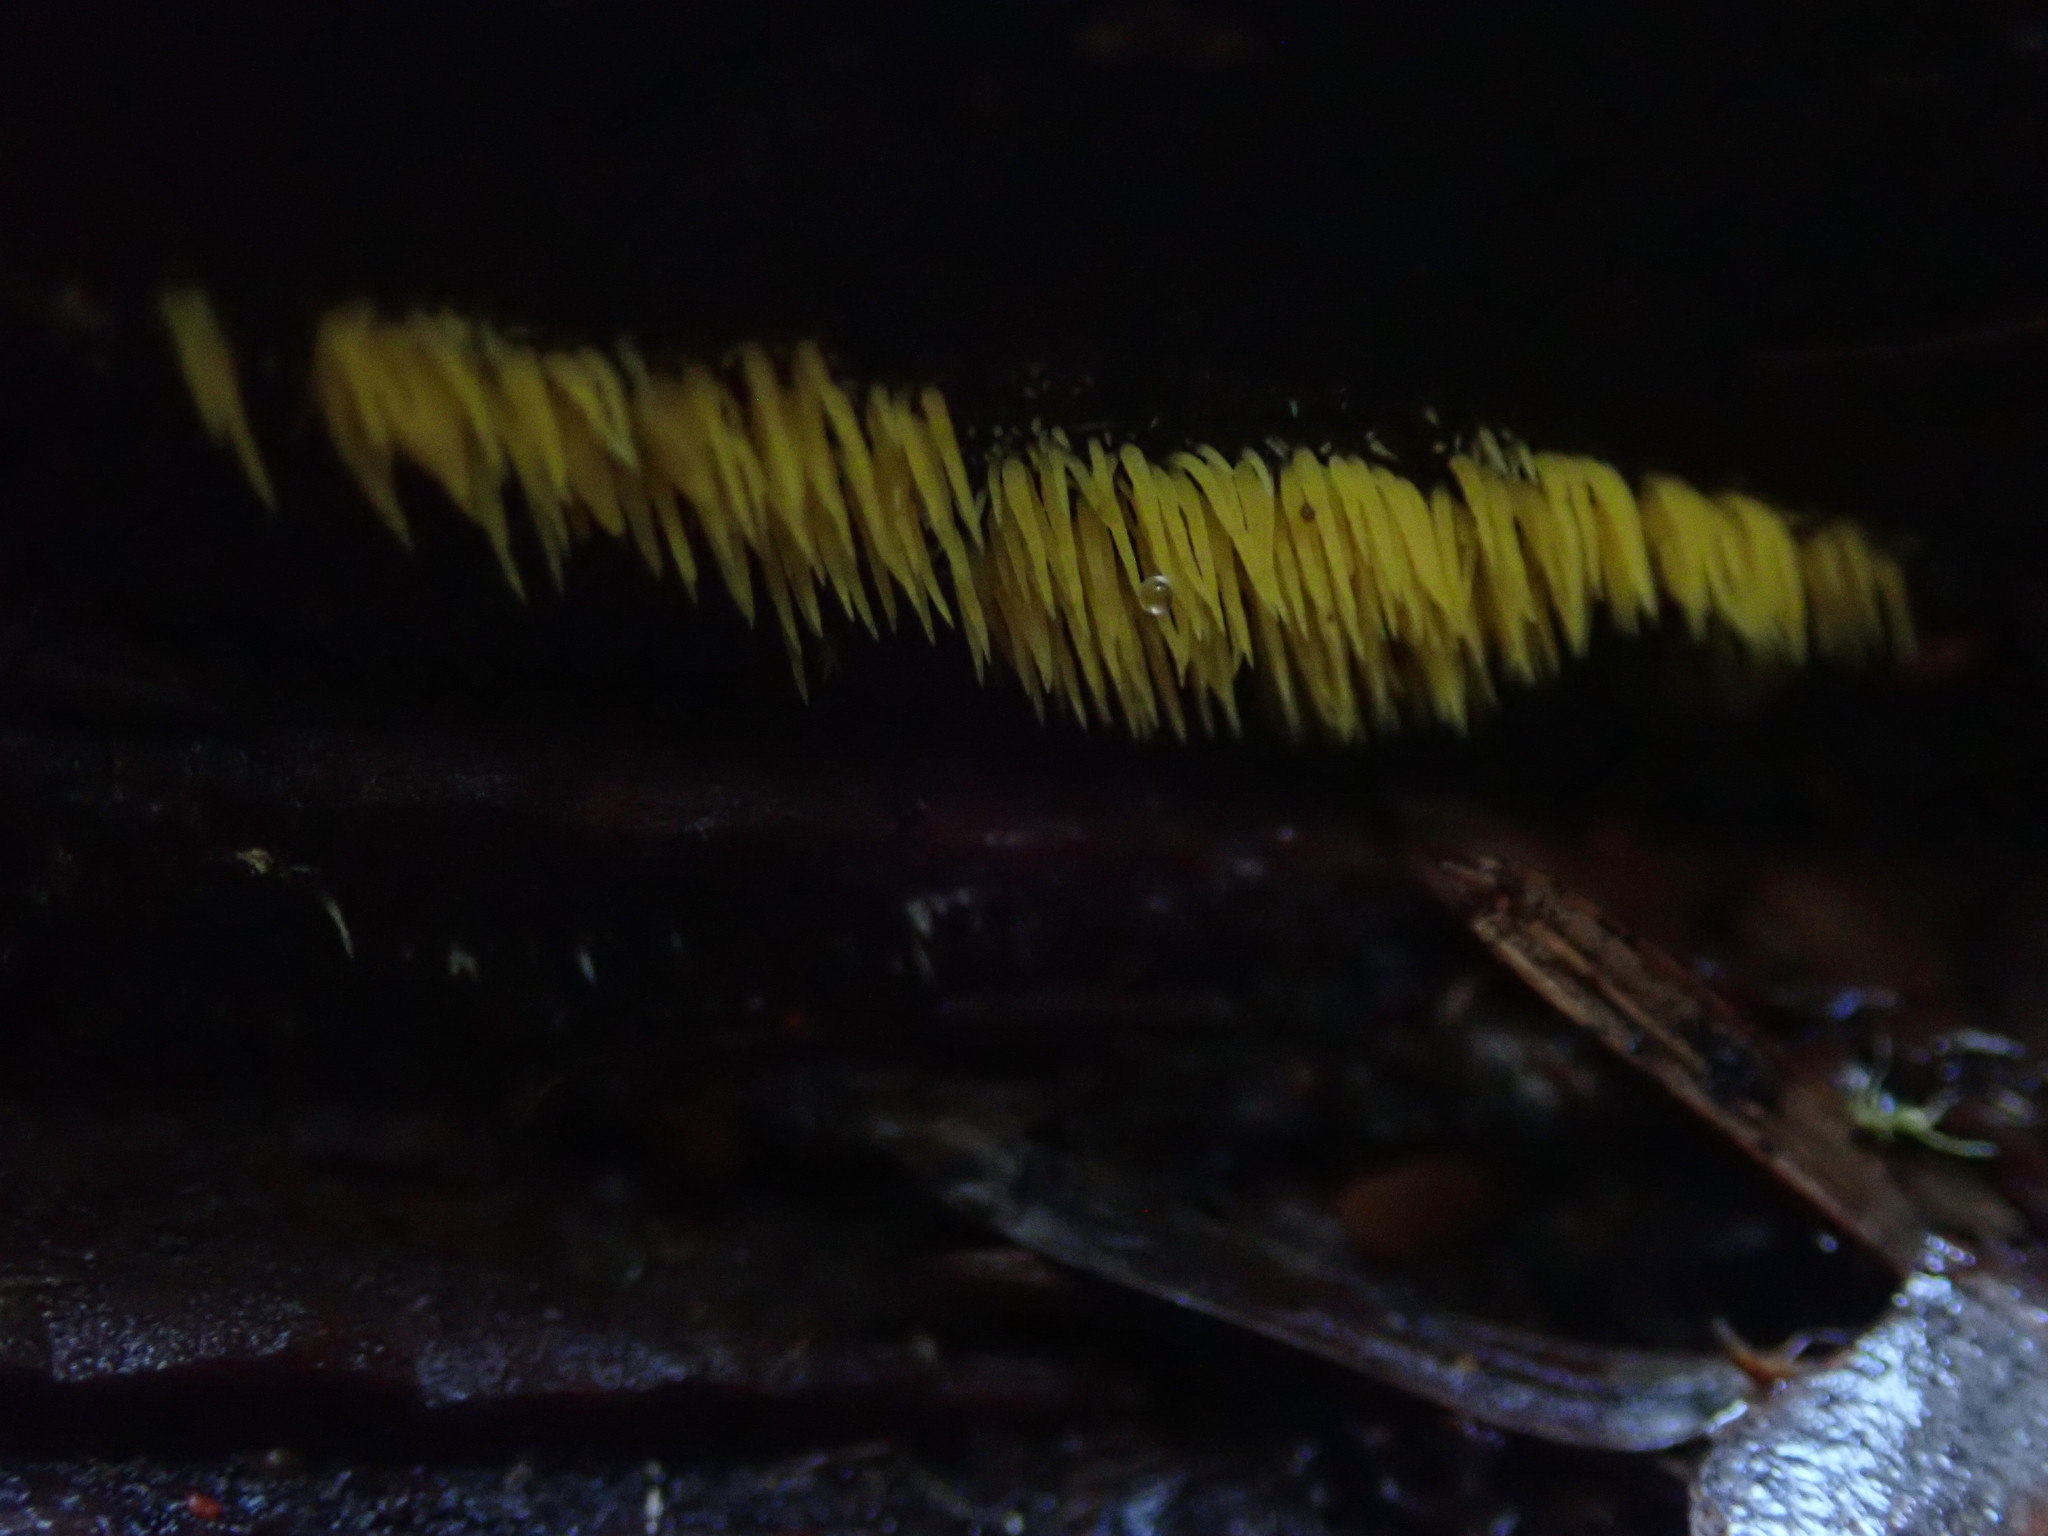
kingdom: Fungi
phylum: Basidiomycota
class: Agaricomycetes
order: Agaricales
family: Clavariaceae
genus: Mucronella
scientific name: Mucronella flava
